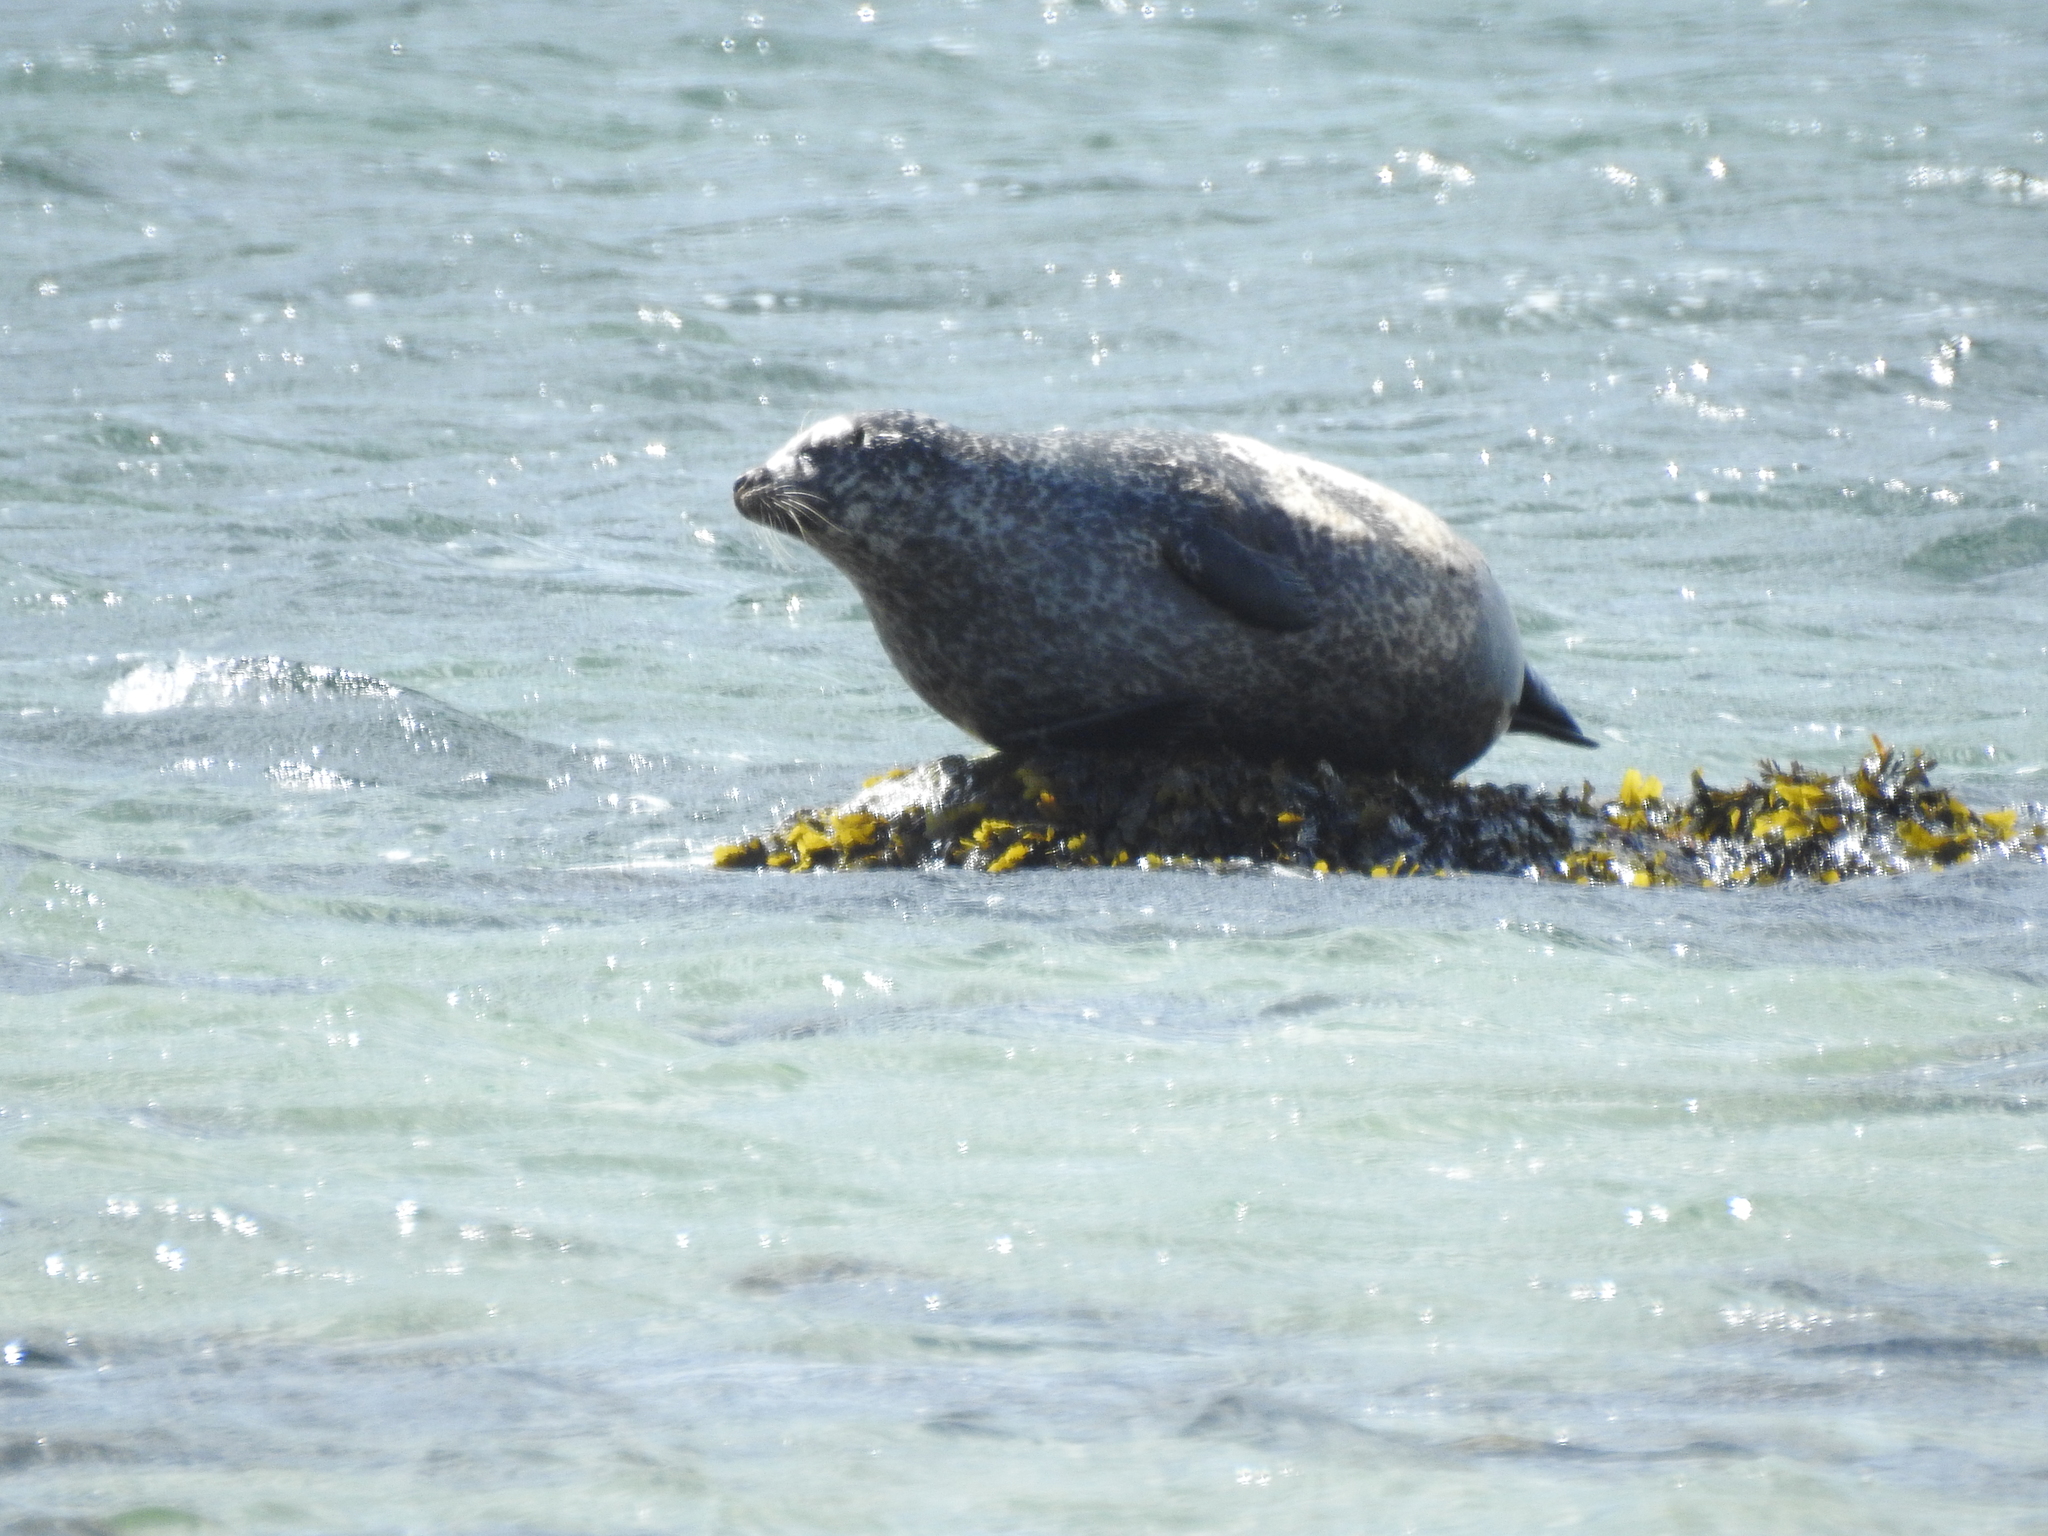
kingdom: Animalia
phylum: Chordata
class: Mammalia
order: Carnivora
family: Phocidae
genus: Phoca
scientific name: Phoca vitulina
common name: Harbor seal
